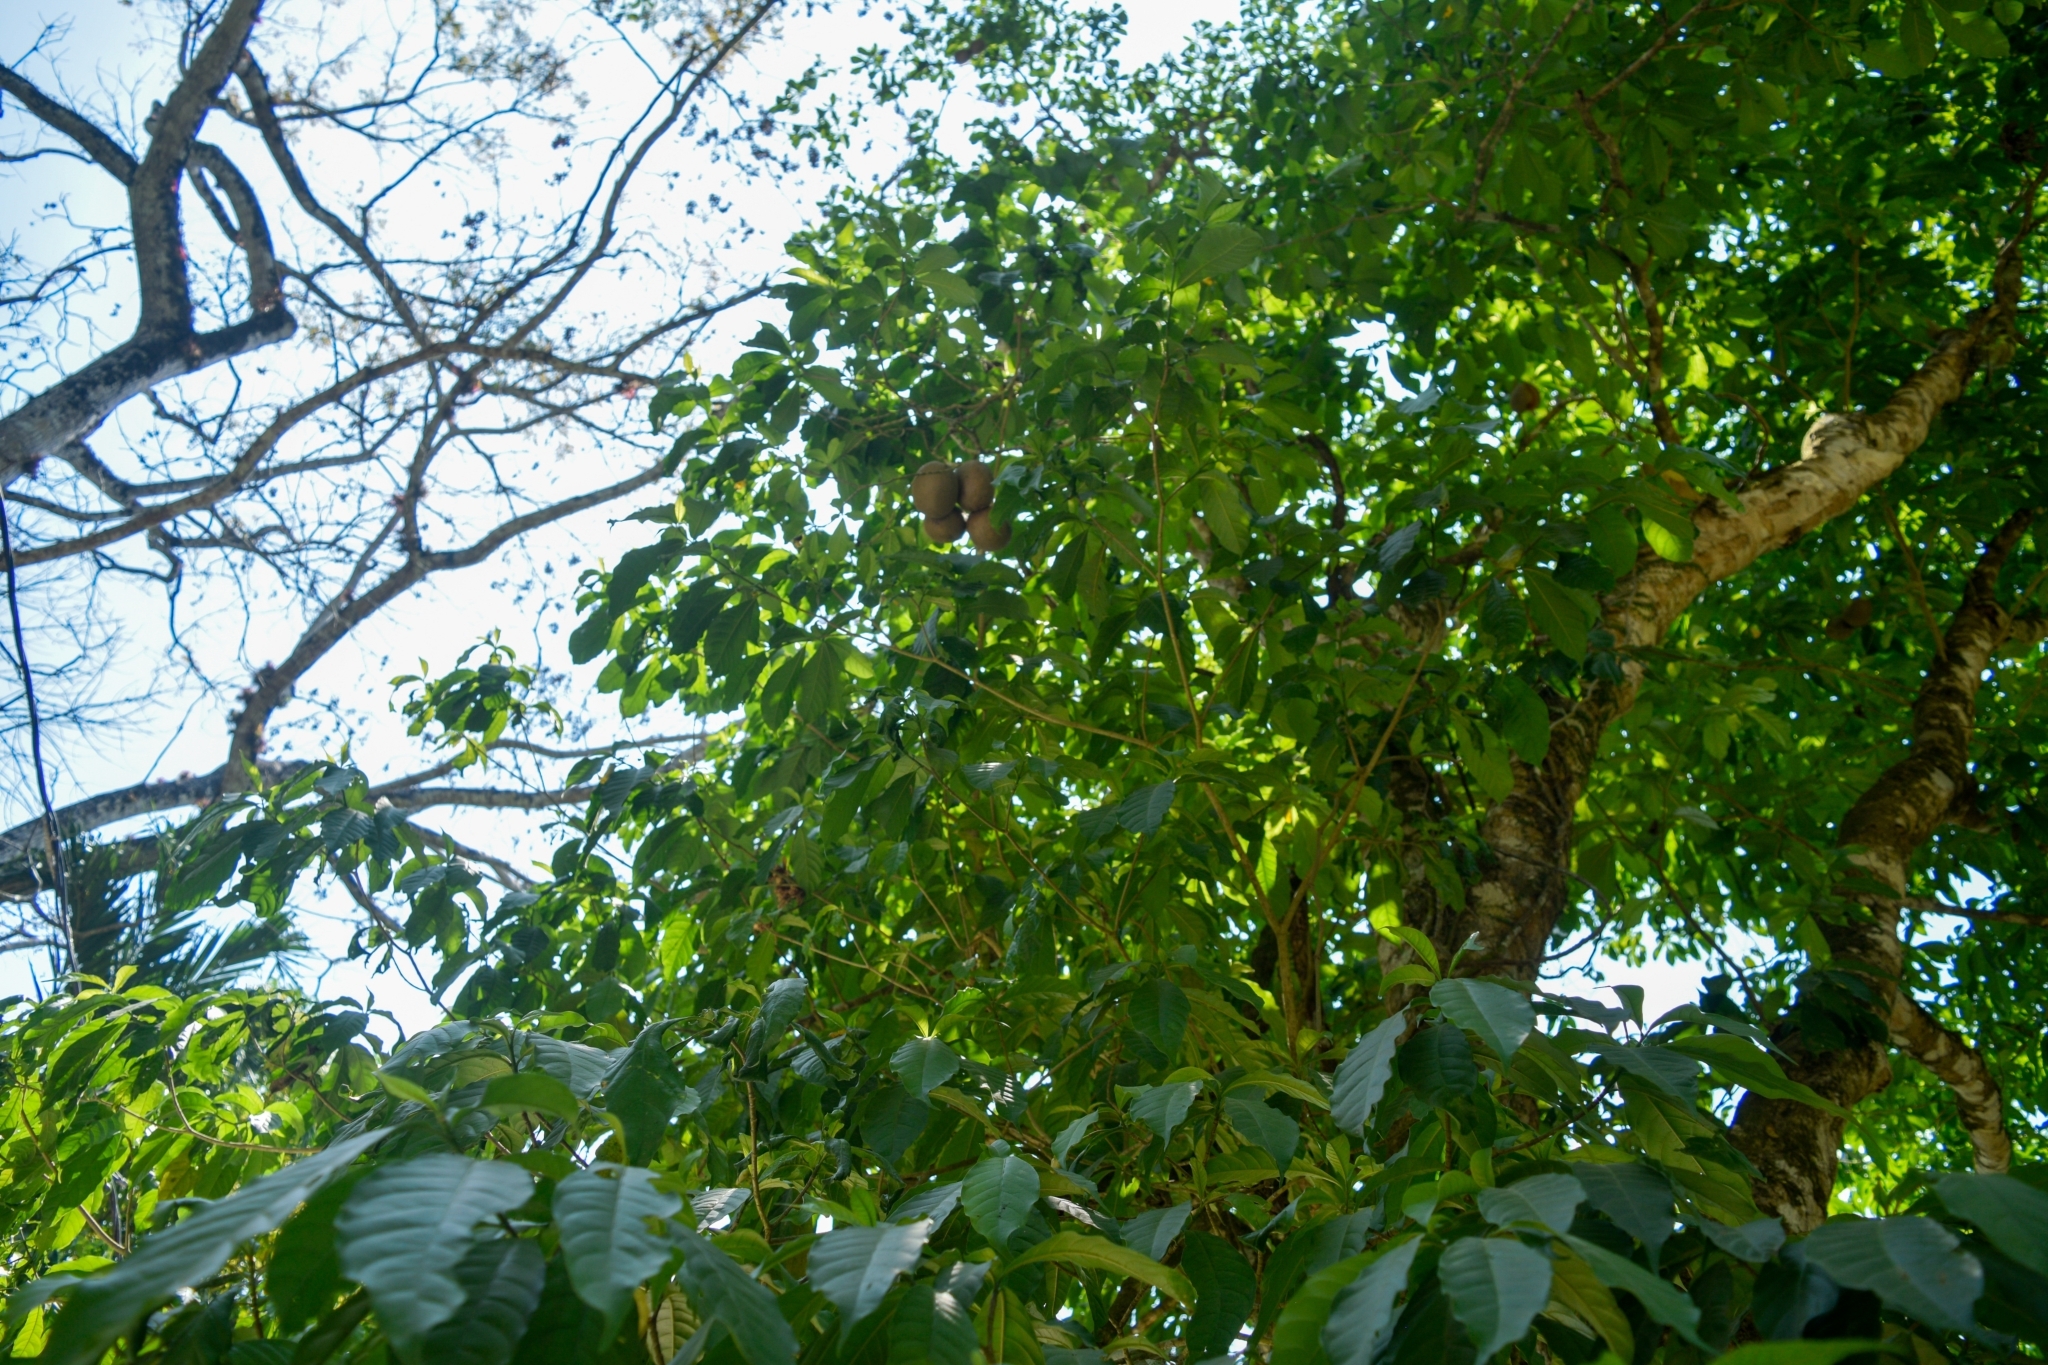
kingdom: Plantae
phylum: Tracheophyta
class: Magnoliopsida
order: Gentianales
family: Apocynaceae
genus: Tabernaemontana
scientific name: Tabernaemontana donnell-smithii
